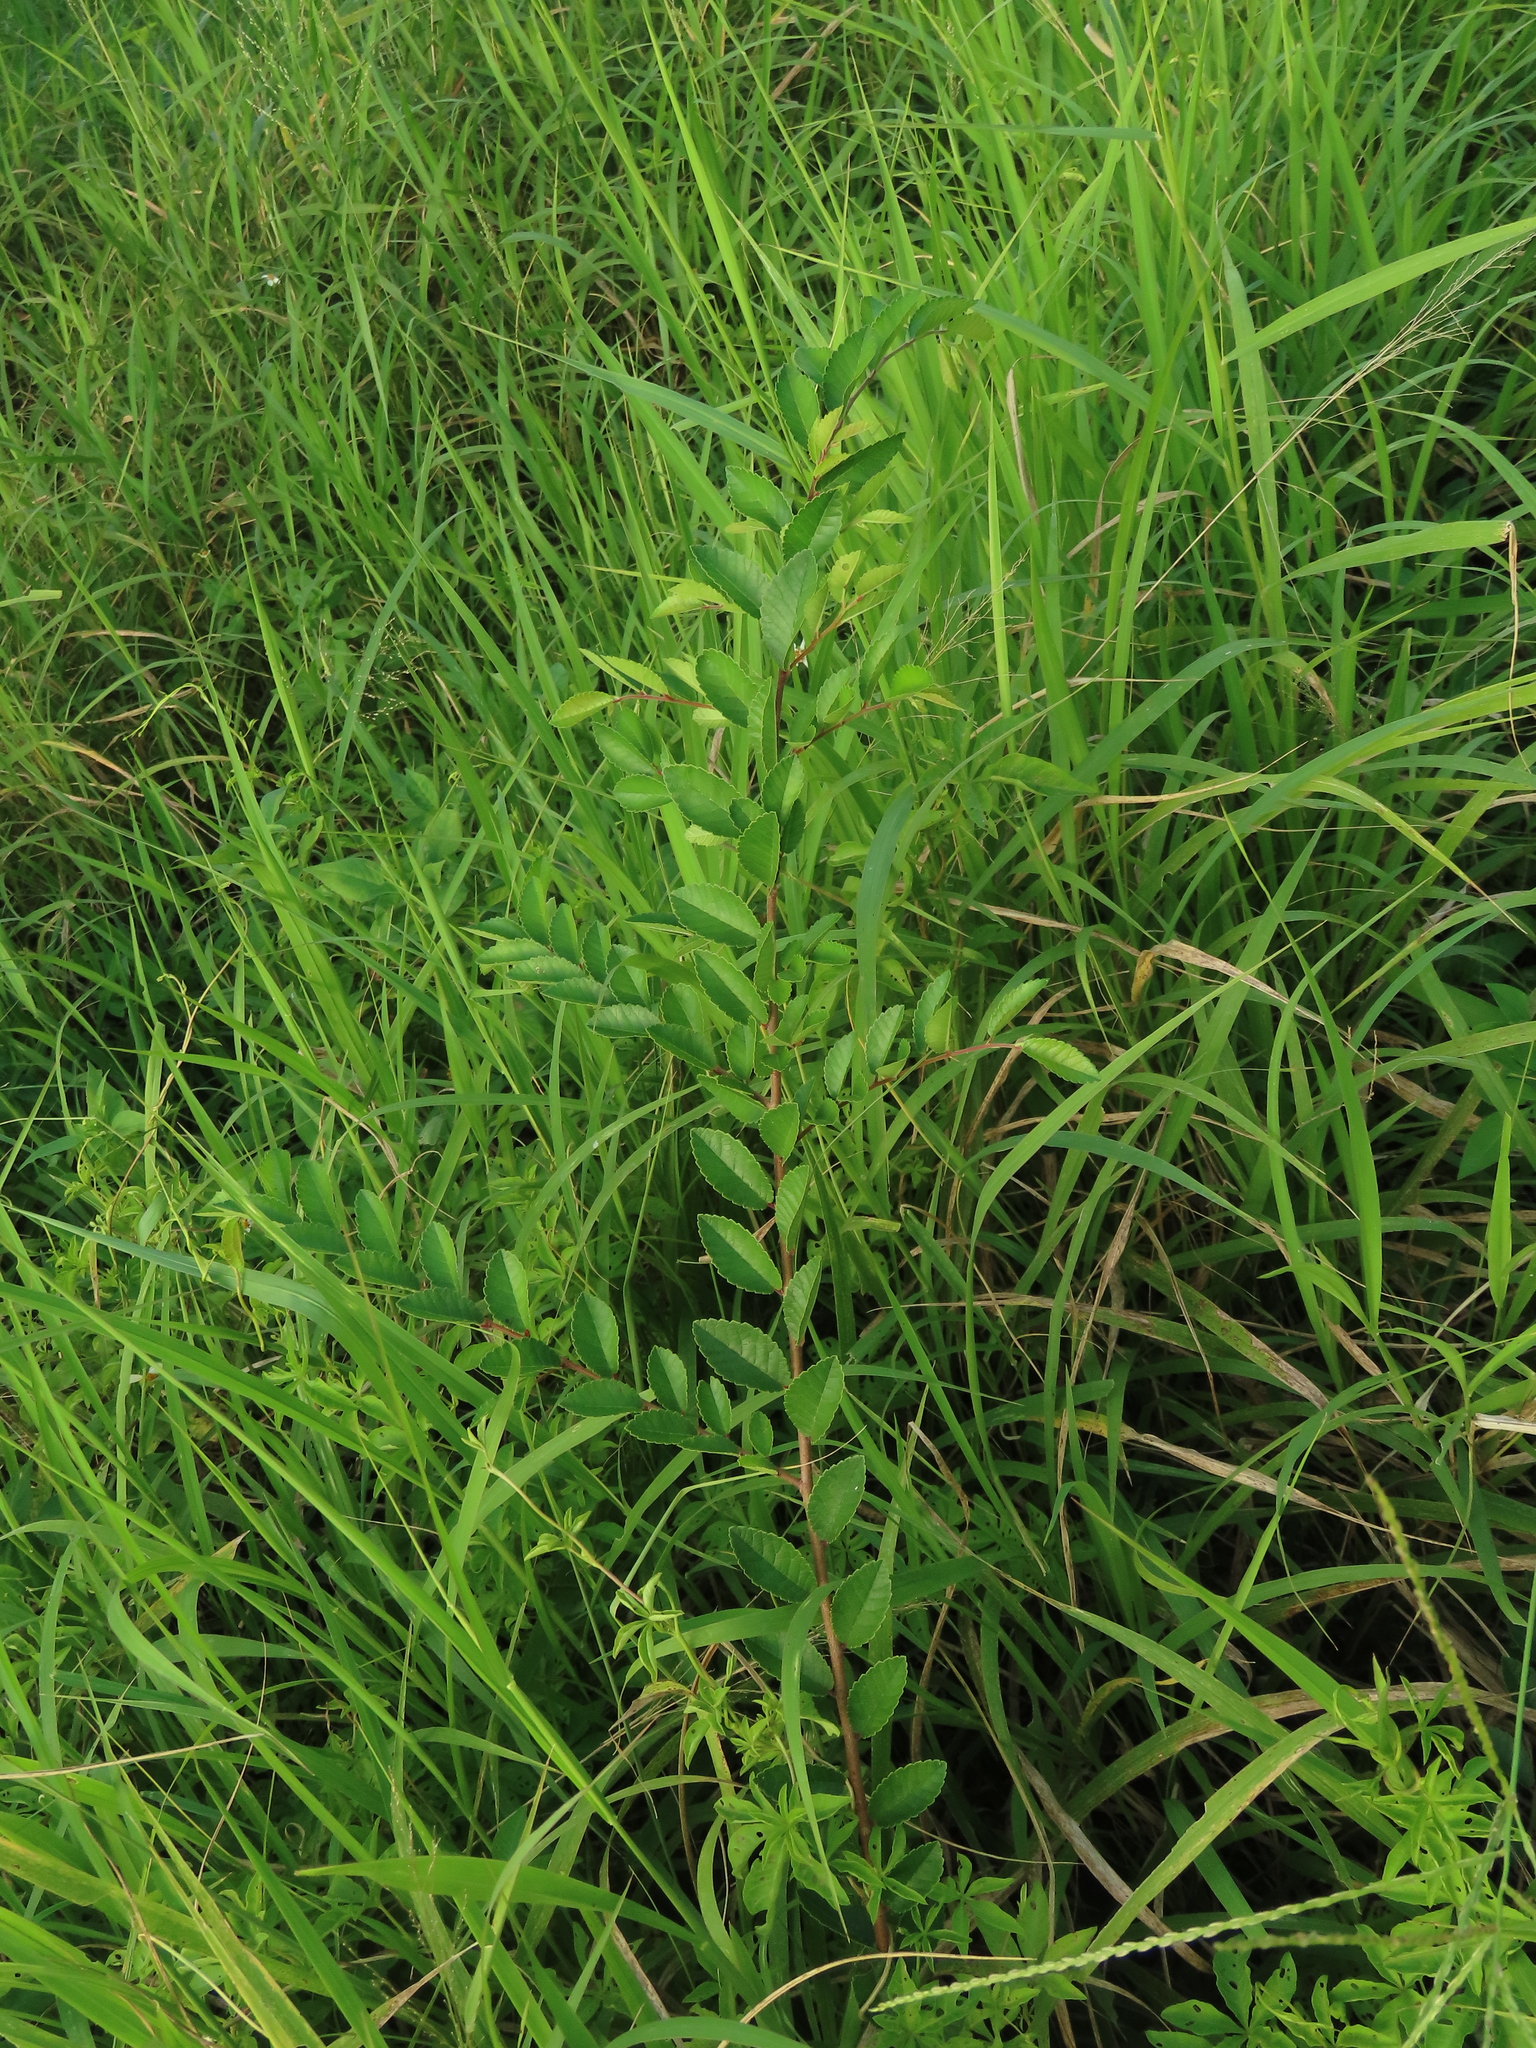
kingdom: Plantae
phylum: Tracheophyta
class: Magnoliopsida
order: Rosales
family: Ulmaceae
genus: Ulmus
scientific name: Ulmus parvifolia
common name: Chinese elm
